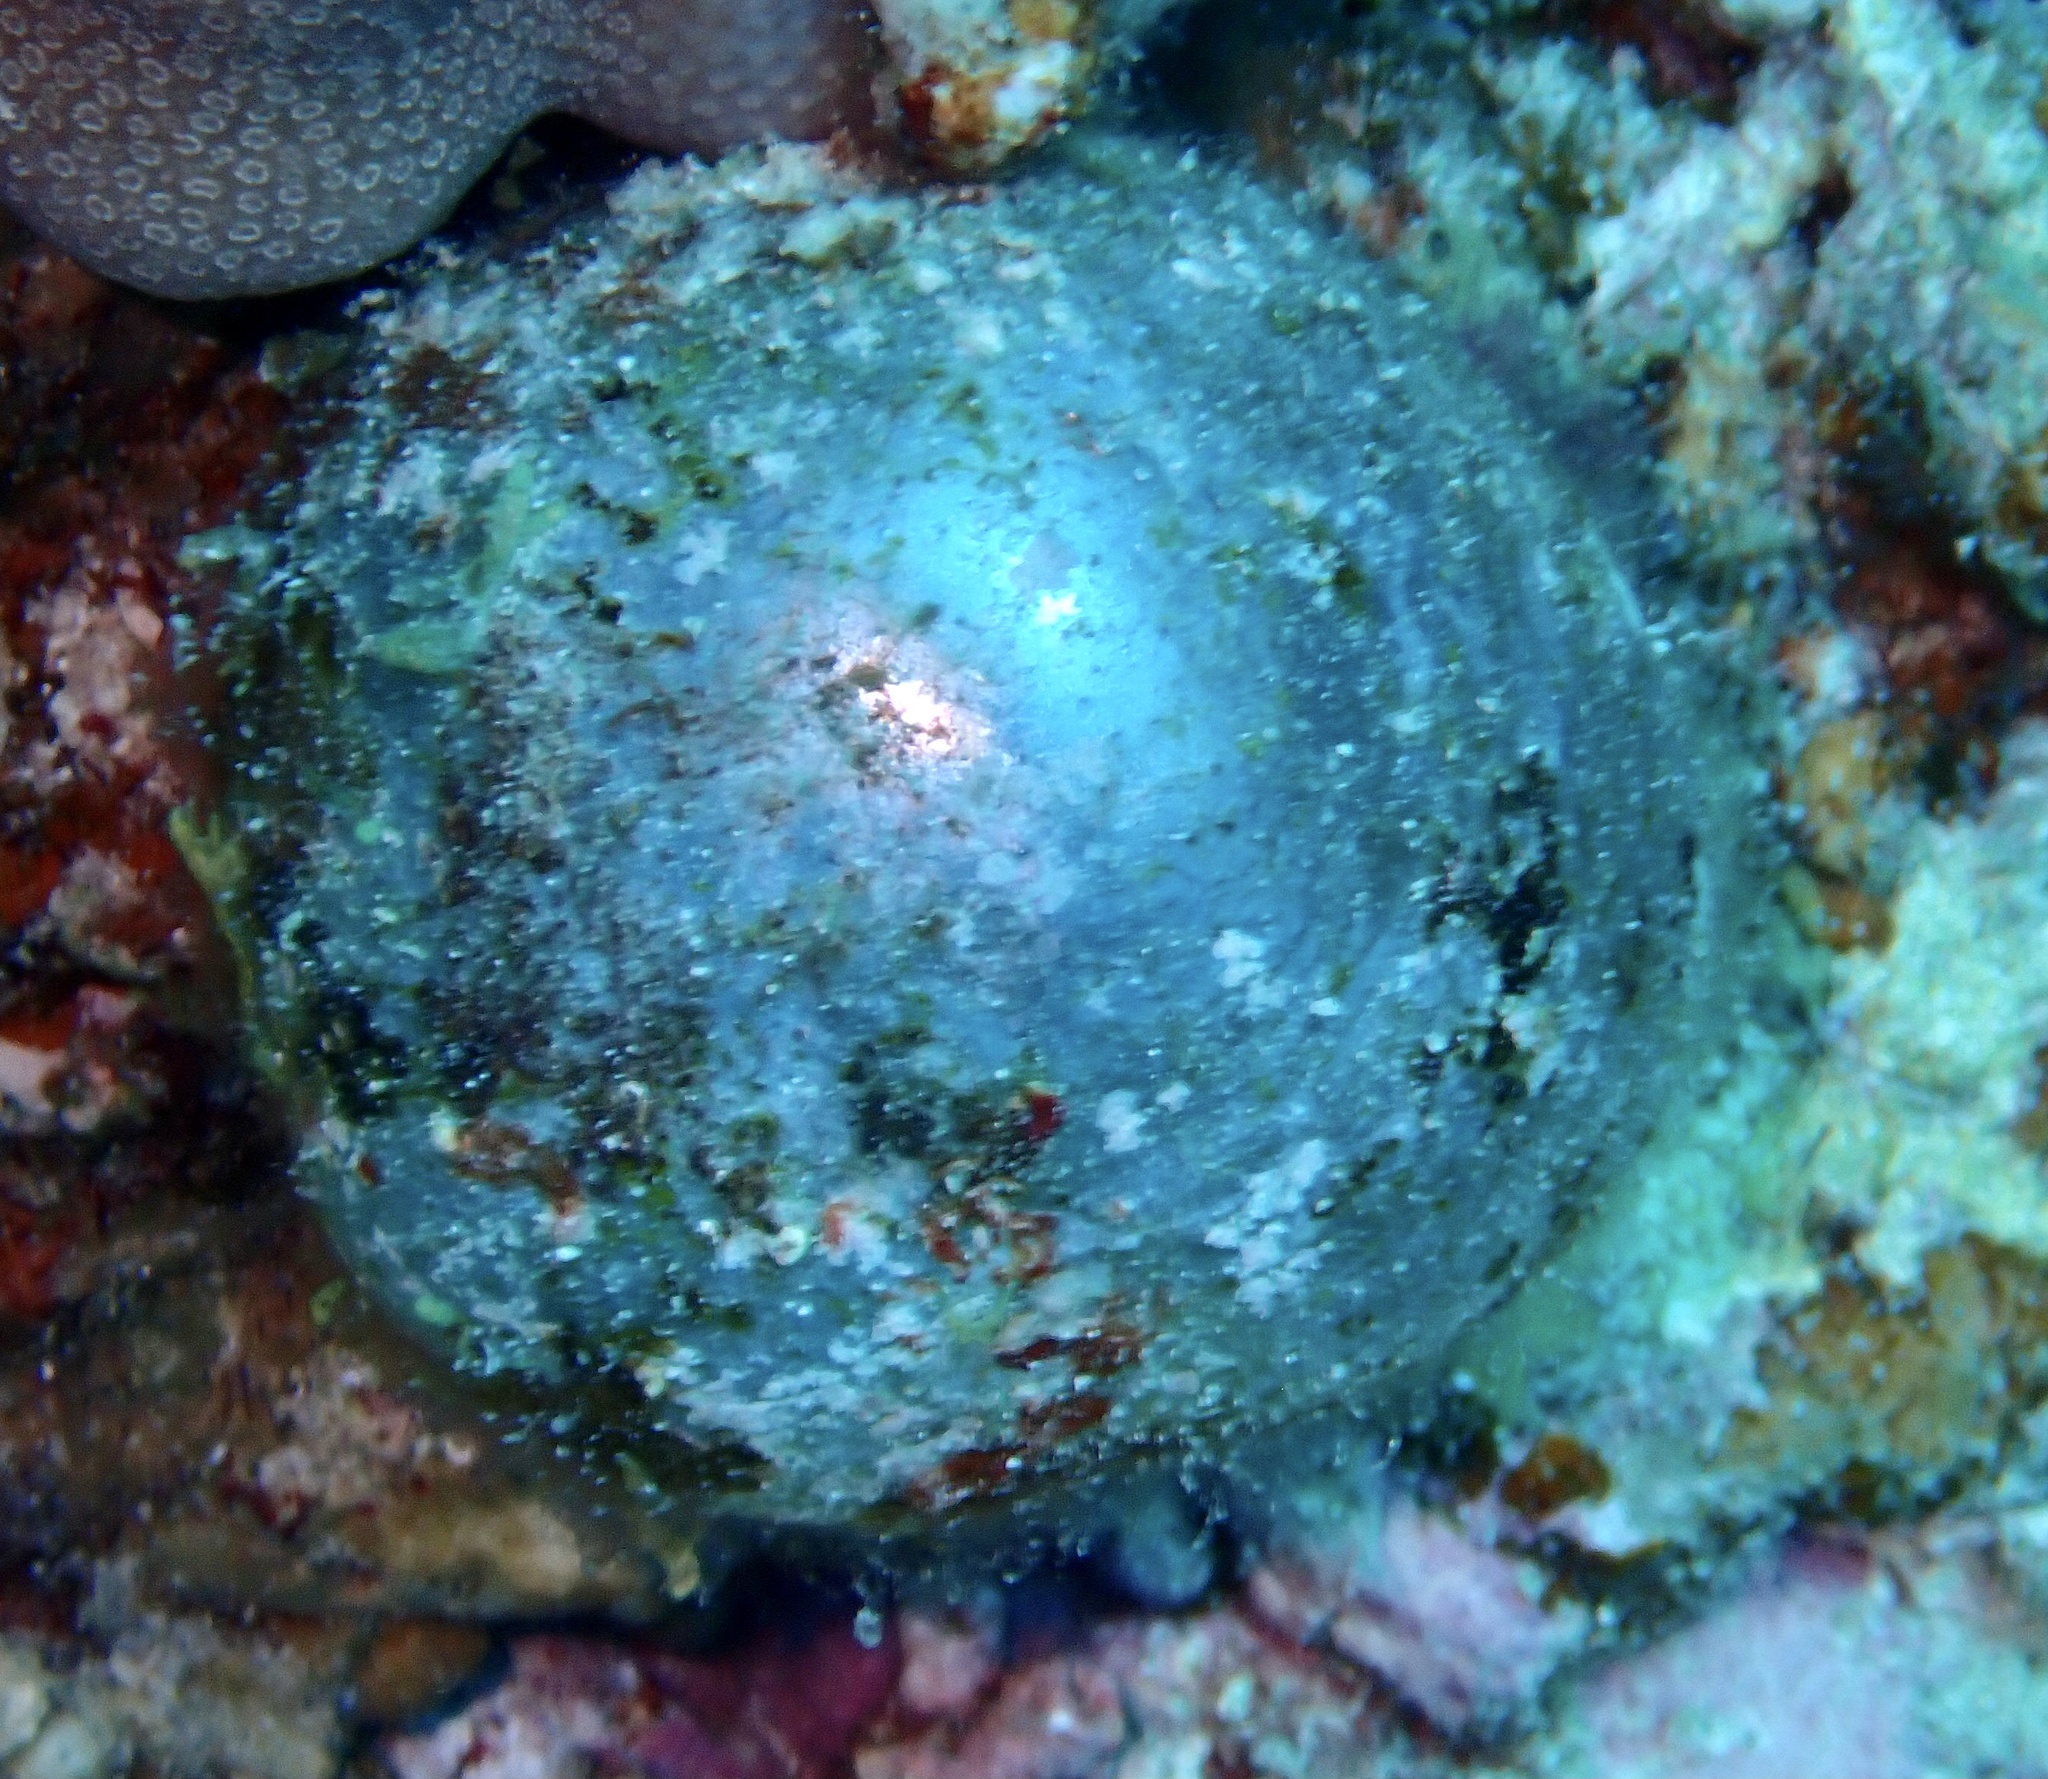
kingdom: Plantae
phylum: Chlorophyta
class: Ulvophyceae
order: Siphonocladales
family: Valoniaceae
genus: Valonia
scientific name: Valonia ventricosa
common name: Sea pearl
